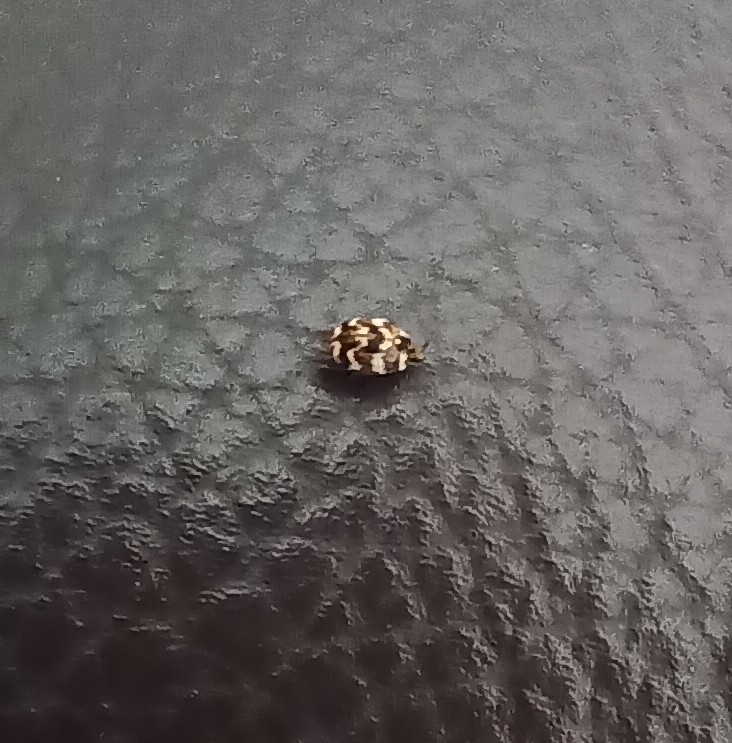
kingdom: Animalia
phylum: Arthropoda
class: Insecta
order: Coleoptera
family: Dermestidae
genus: Anthrenus
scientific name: Anthrenus verbasci
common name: Varied carpet beetle
